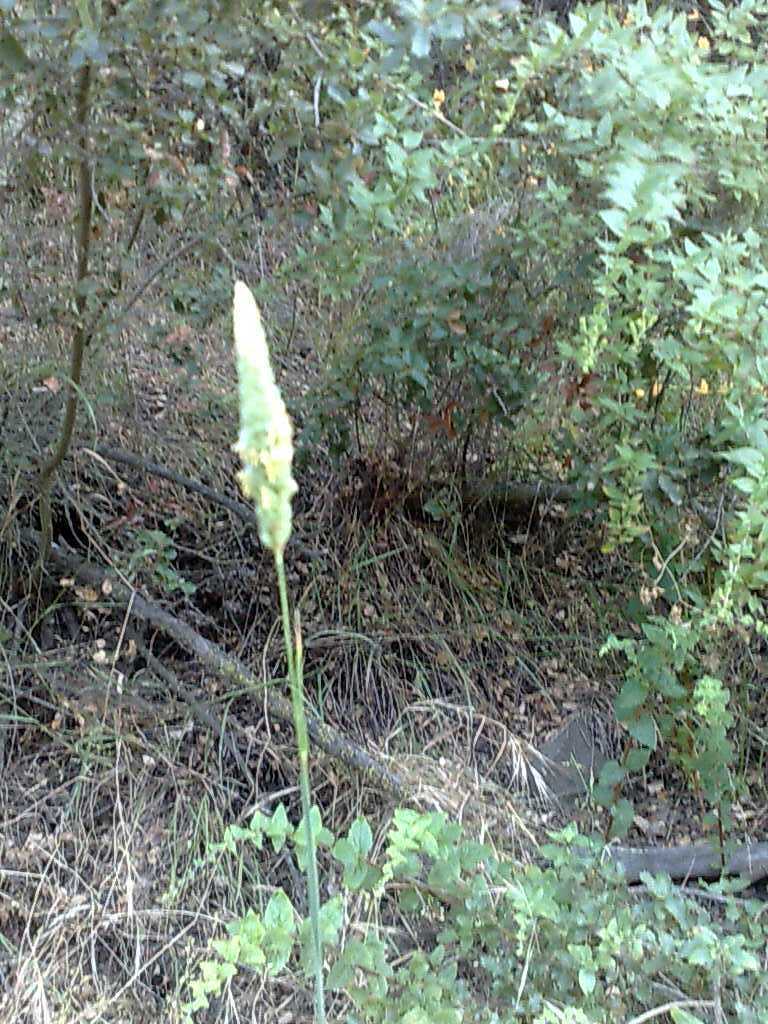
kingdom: Plantae
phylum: Tracheophyta
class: Magnoliopsida
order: Lamiales
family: Plantaginaceae
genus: Keckiella
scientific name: Keckiella cordifolia
